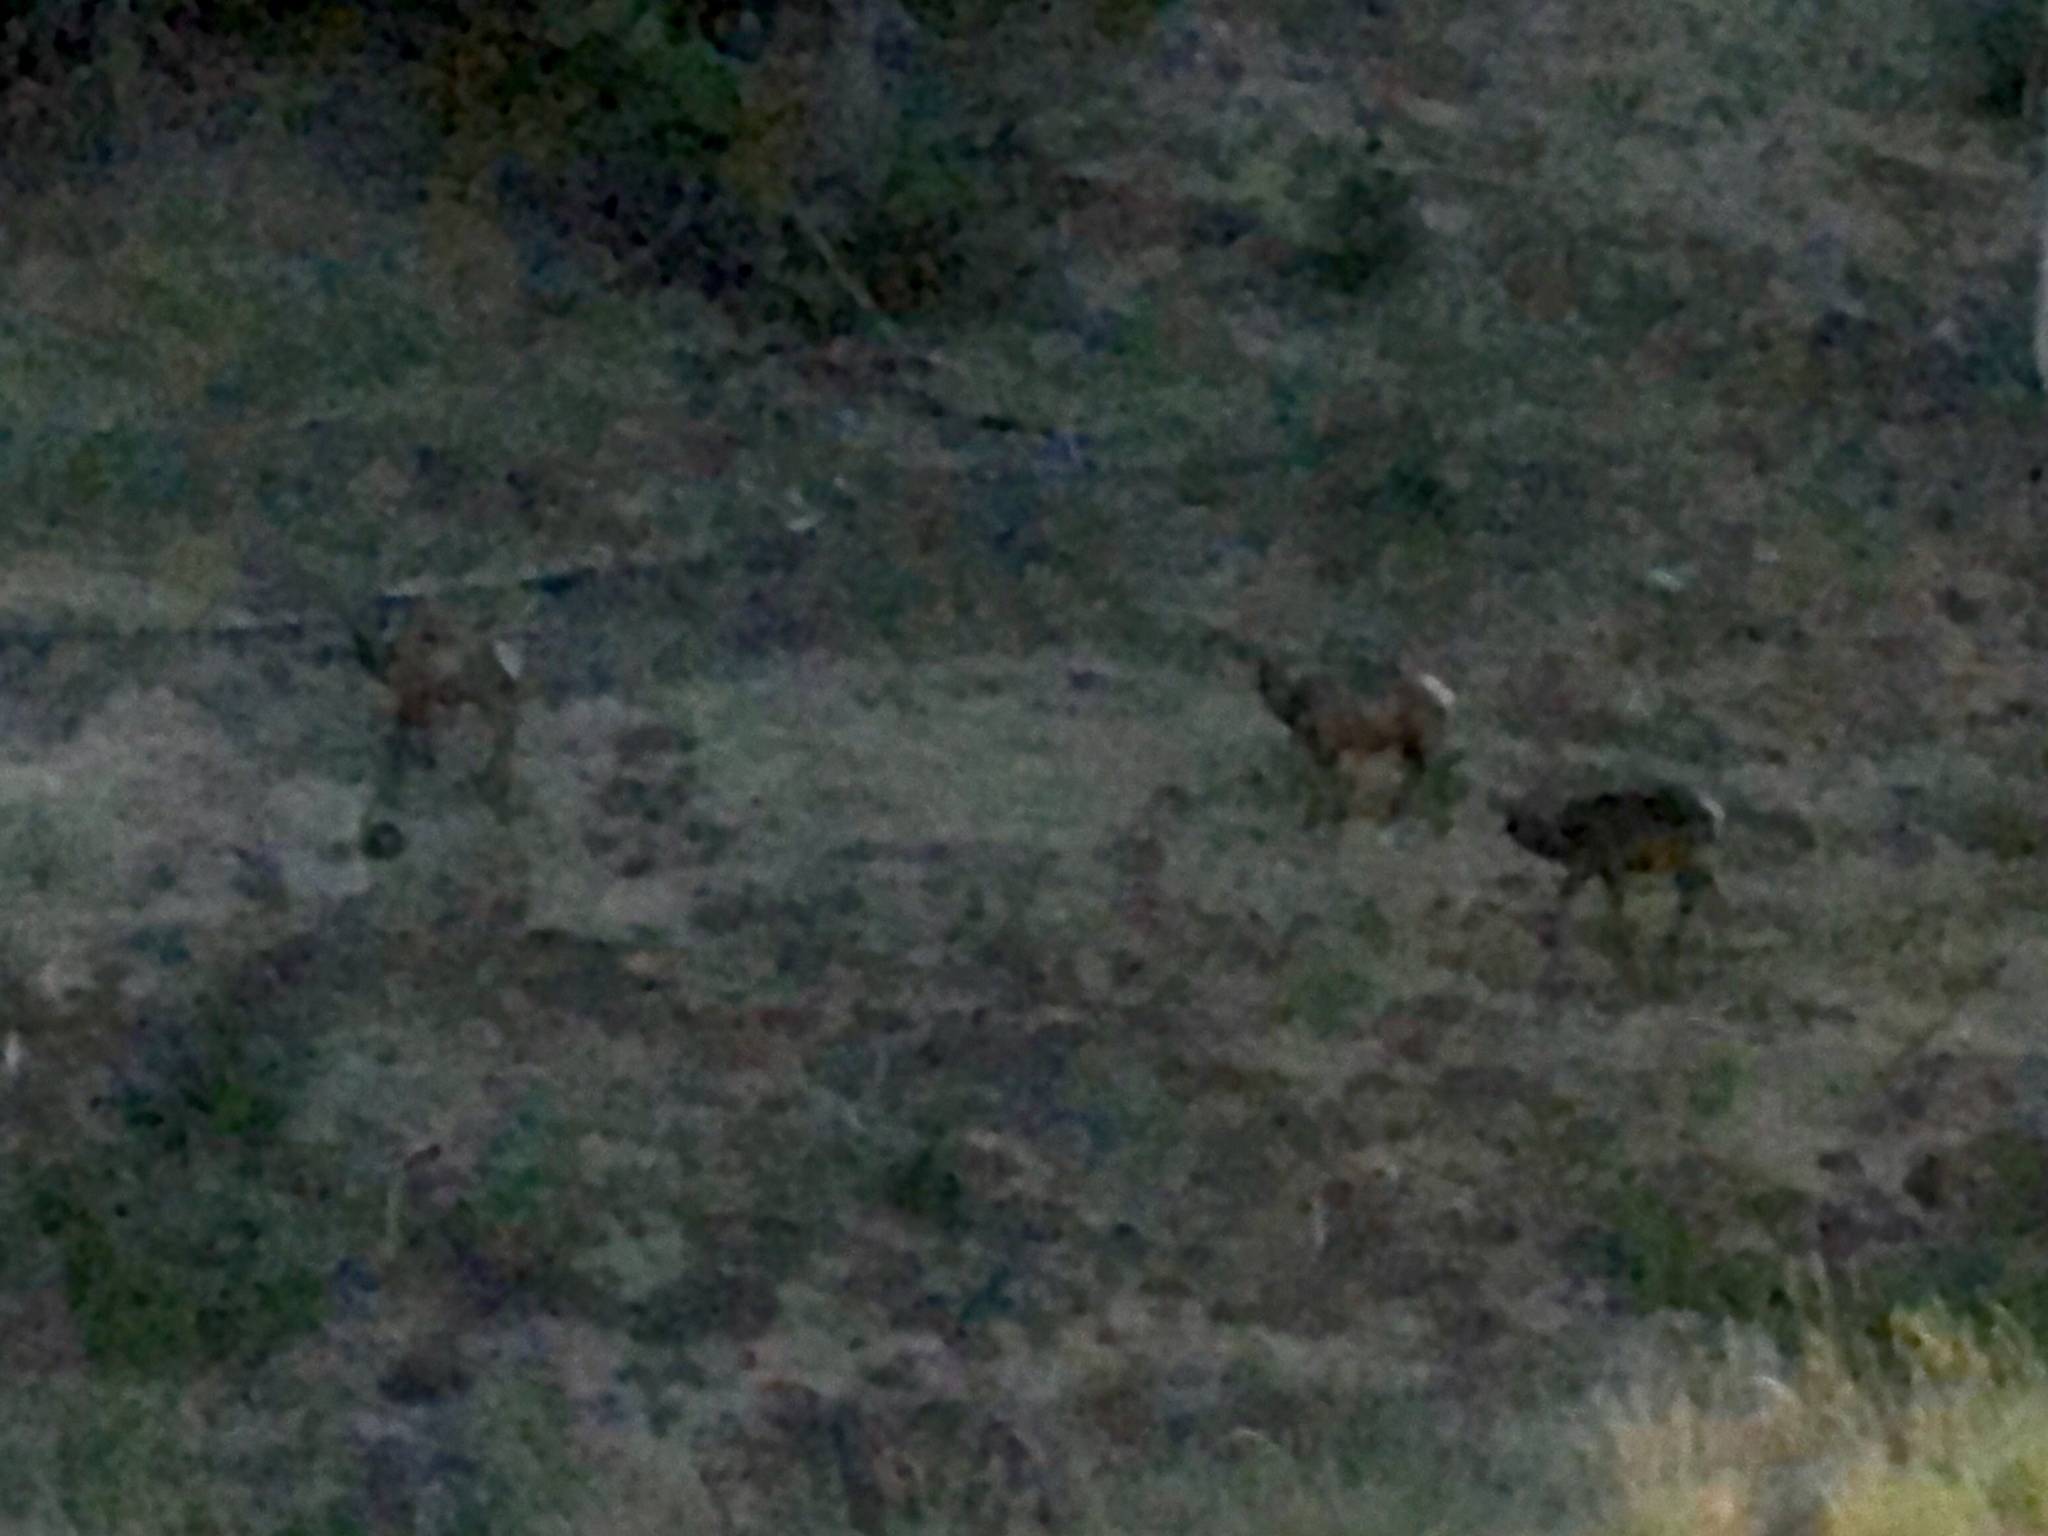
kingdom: Animalia
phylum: Chordata
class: Mammalia
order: Artiodactyla
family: Cervidae
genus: Cervus
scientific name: Cervus elaphus
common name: Red deer
